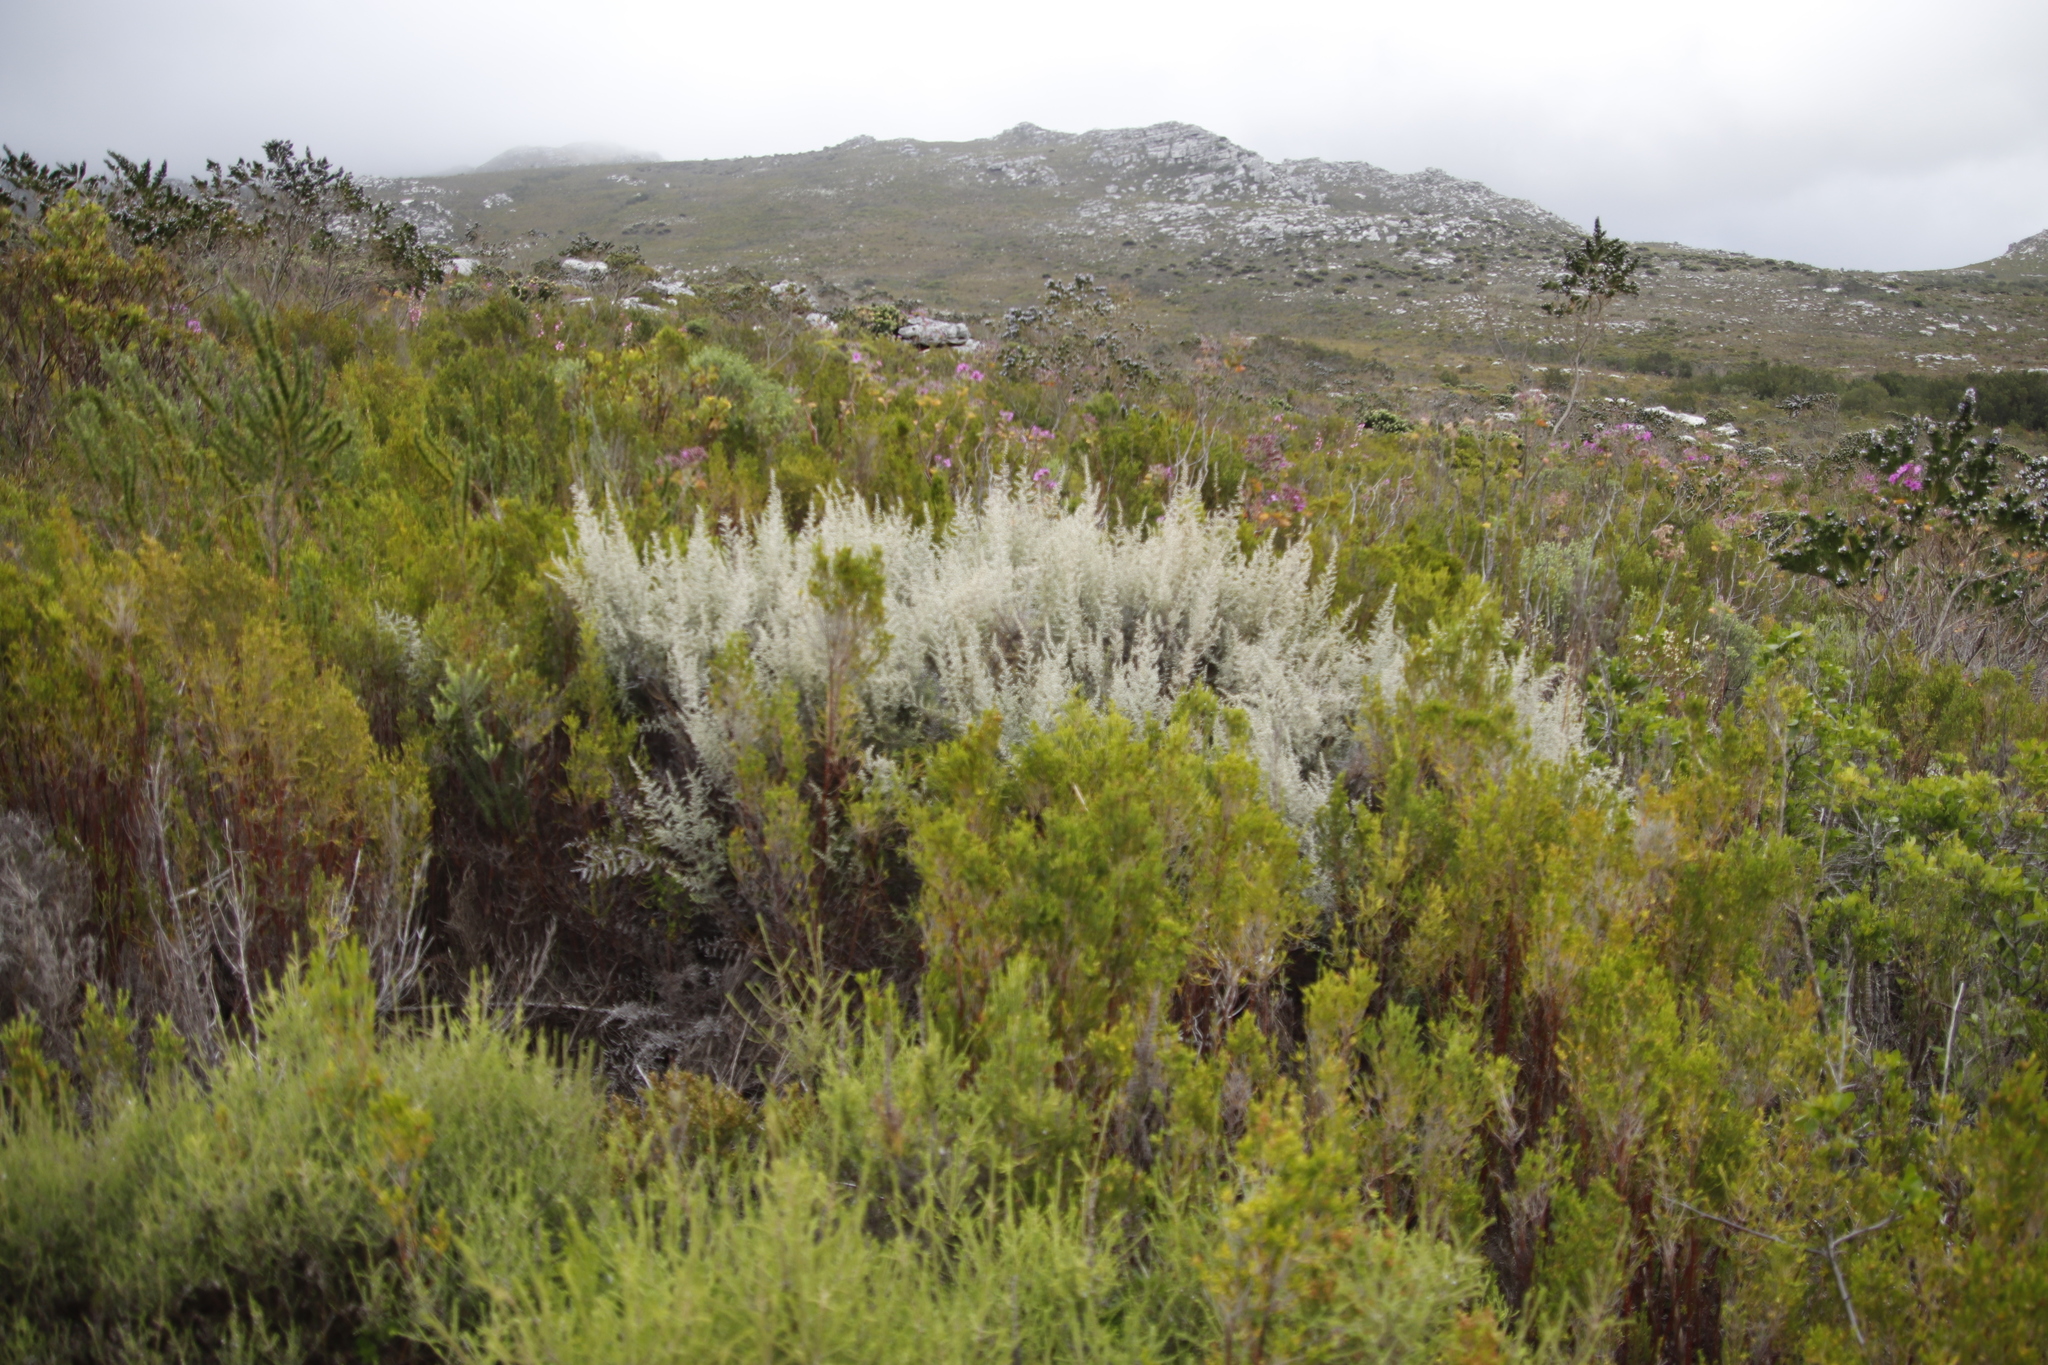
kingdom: Plantae
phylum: Tracheophyta
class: Magnoliopsida
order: Asterales
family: Asteraceae
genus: Seriphium
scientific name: Seriphium plumosum
